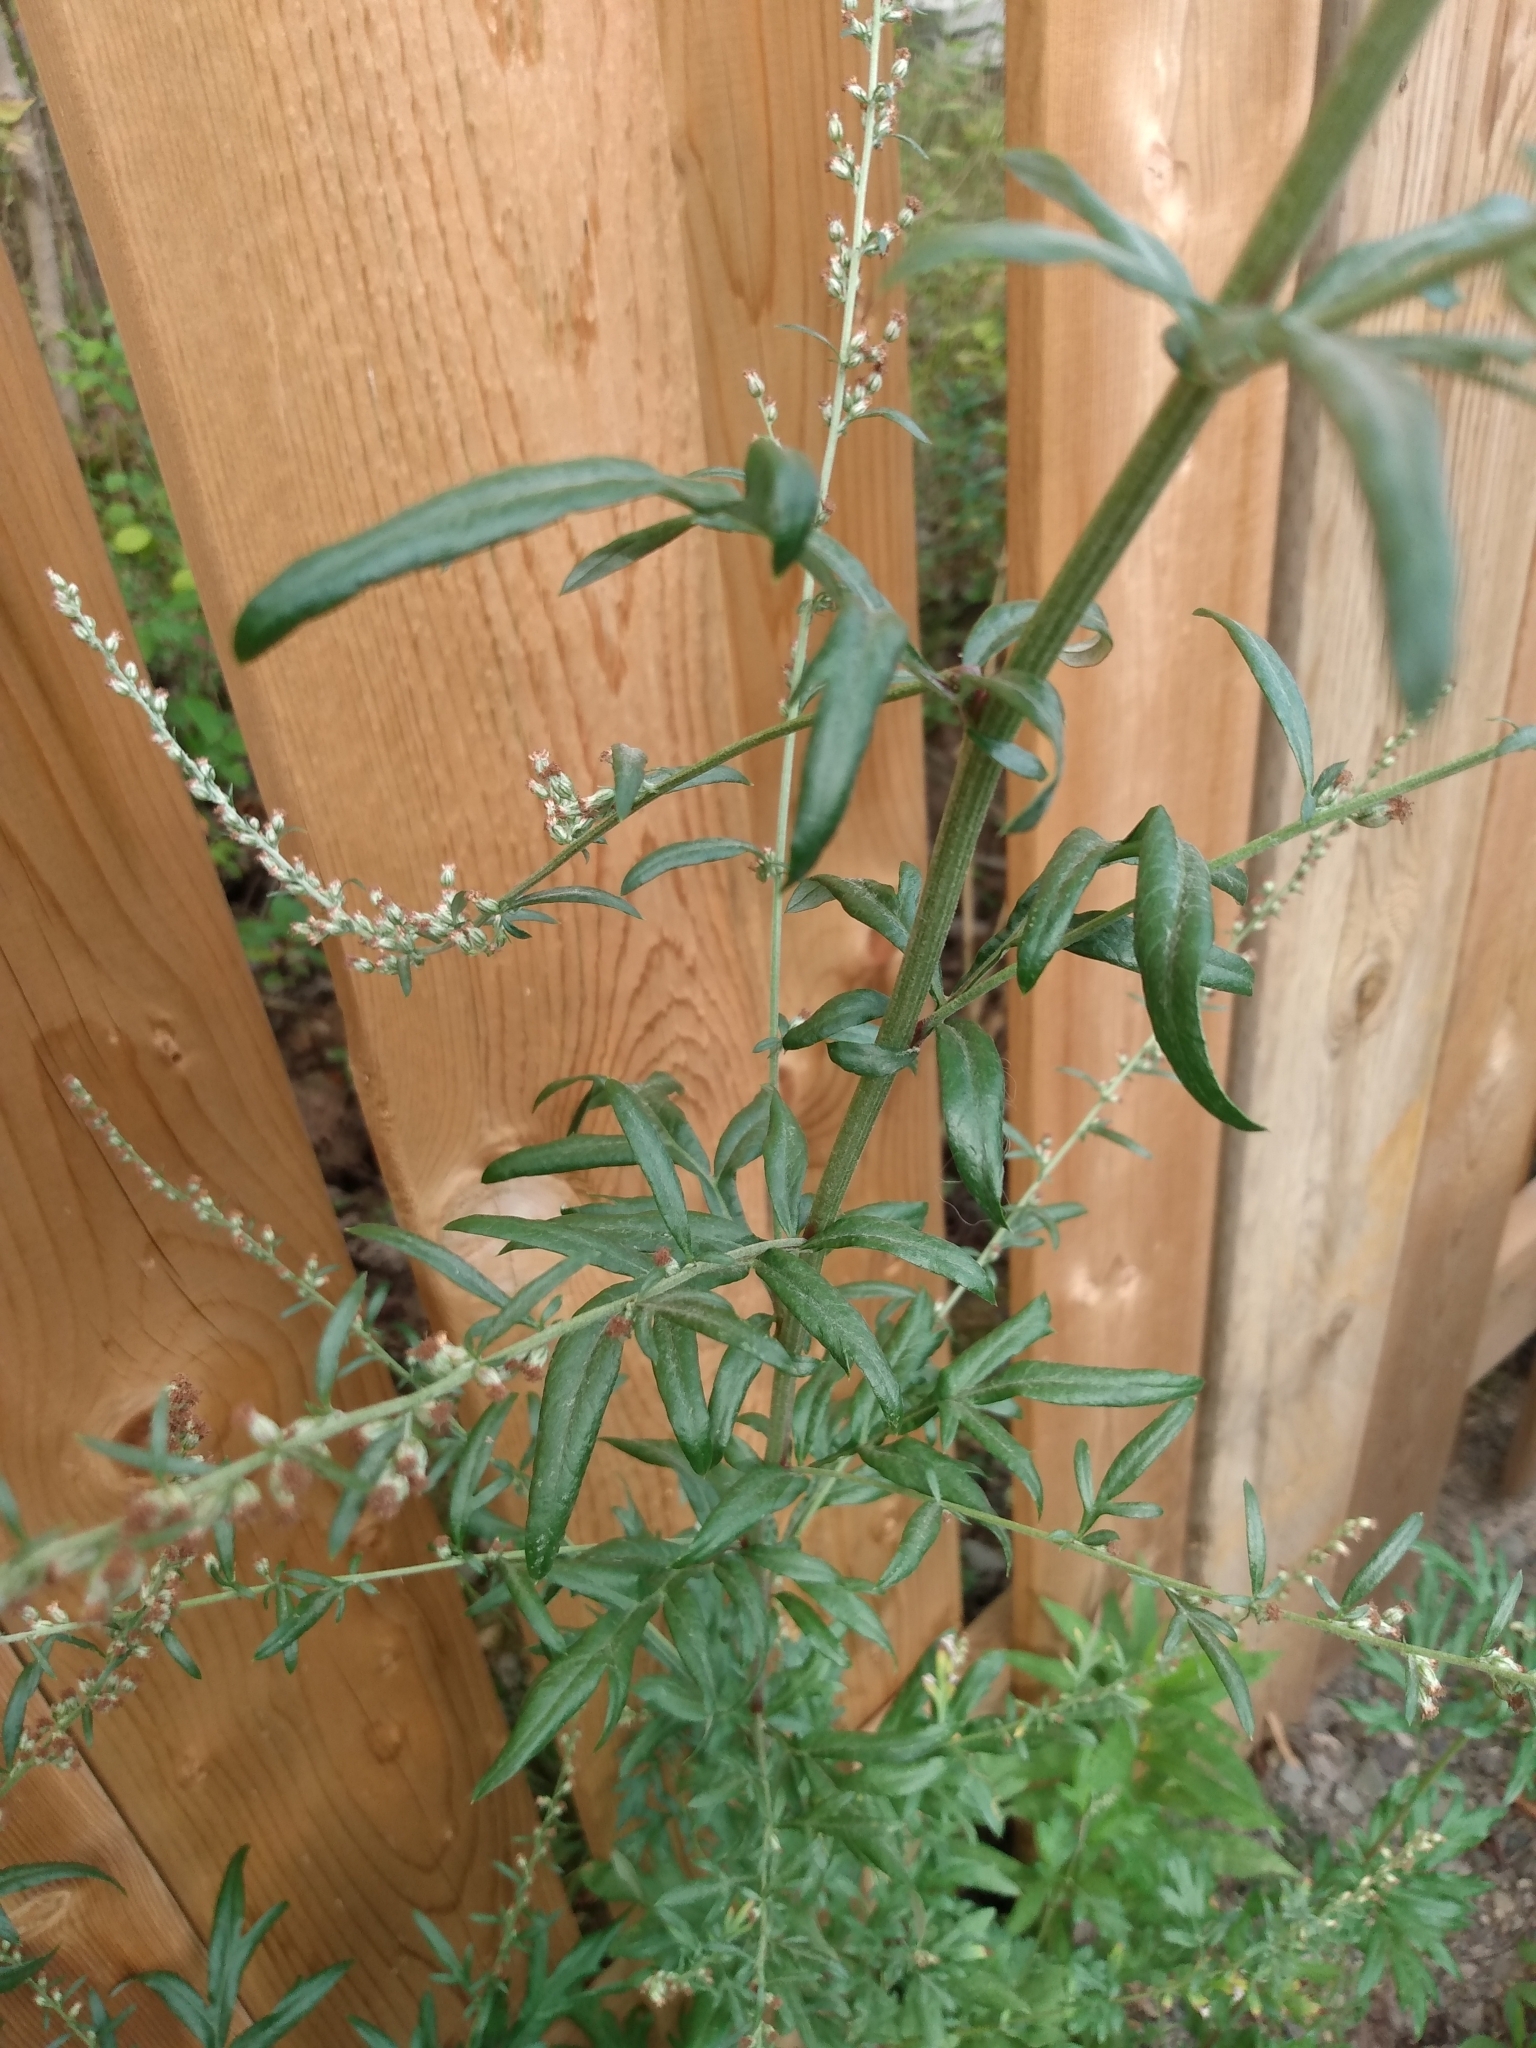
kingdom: Plantae
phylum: Tracheophyta
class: Magnoliopsida
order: Asterales
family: Asteraceae
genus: Artemisia
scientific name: Artemisia vulgaris
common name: Mugwort
